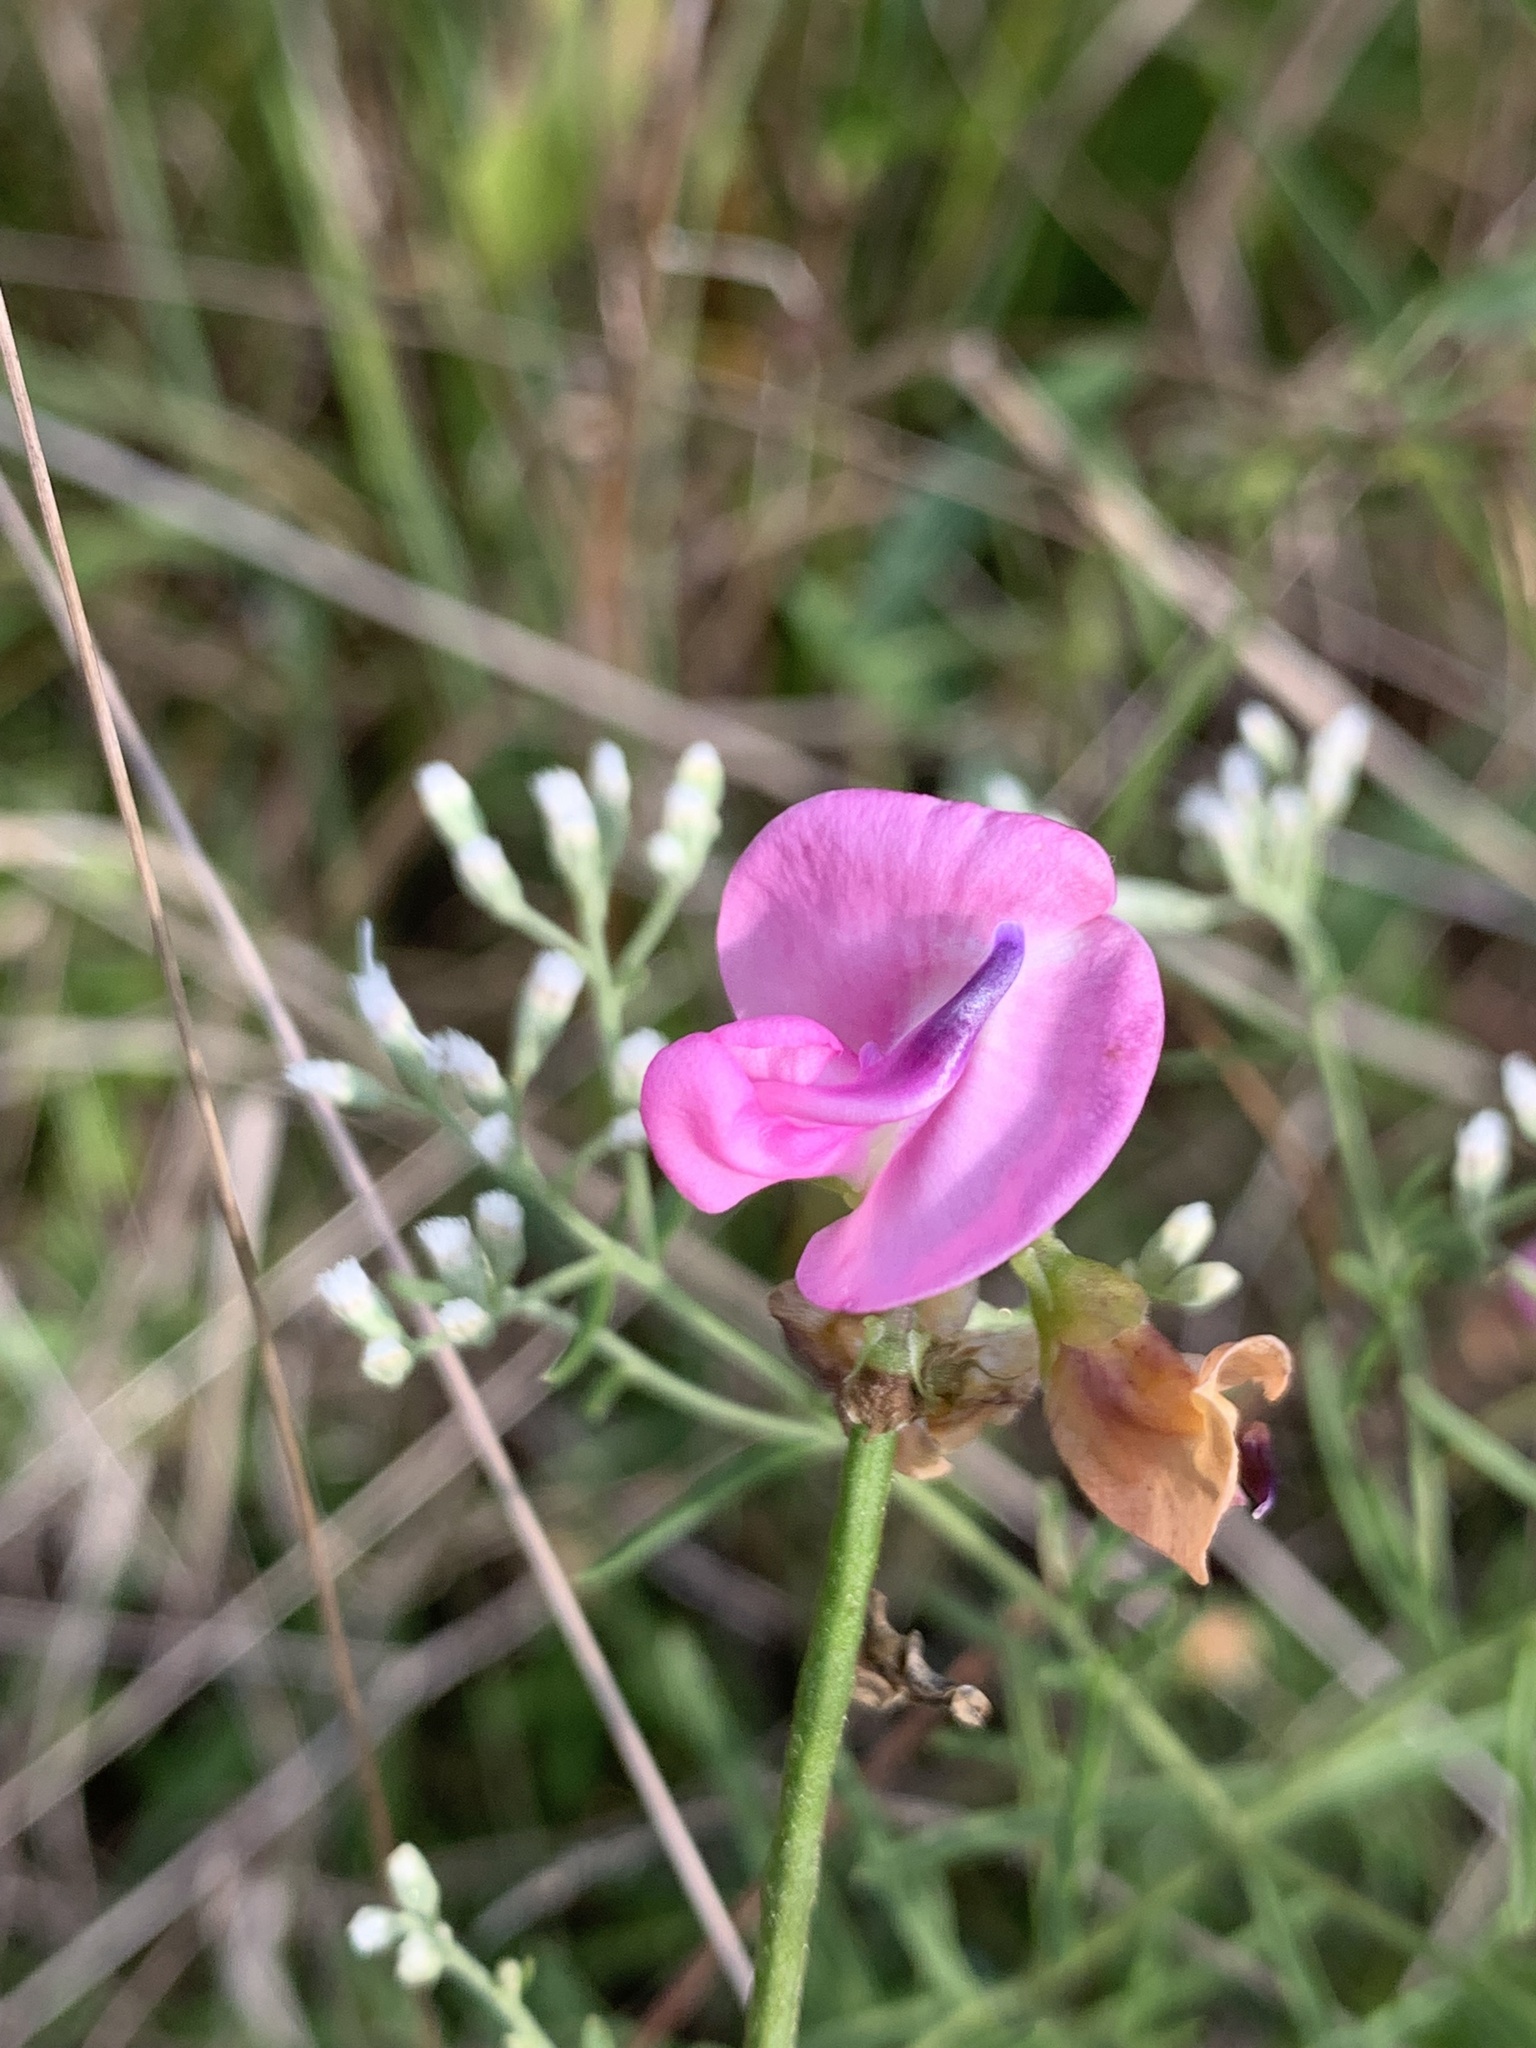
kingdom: Plantae
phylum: Tracheophyta
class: Magnoliopsida
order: Fabales
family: Fabaceae
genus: Strophostyles
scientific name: Strophostyles umbellata
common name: Perennial wild bean
